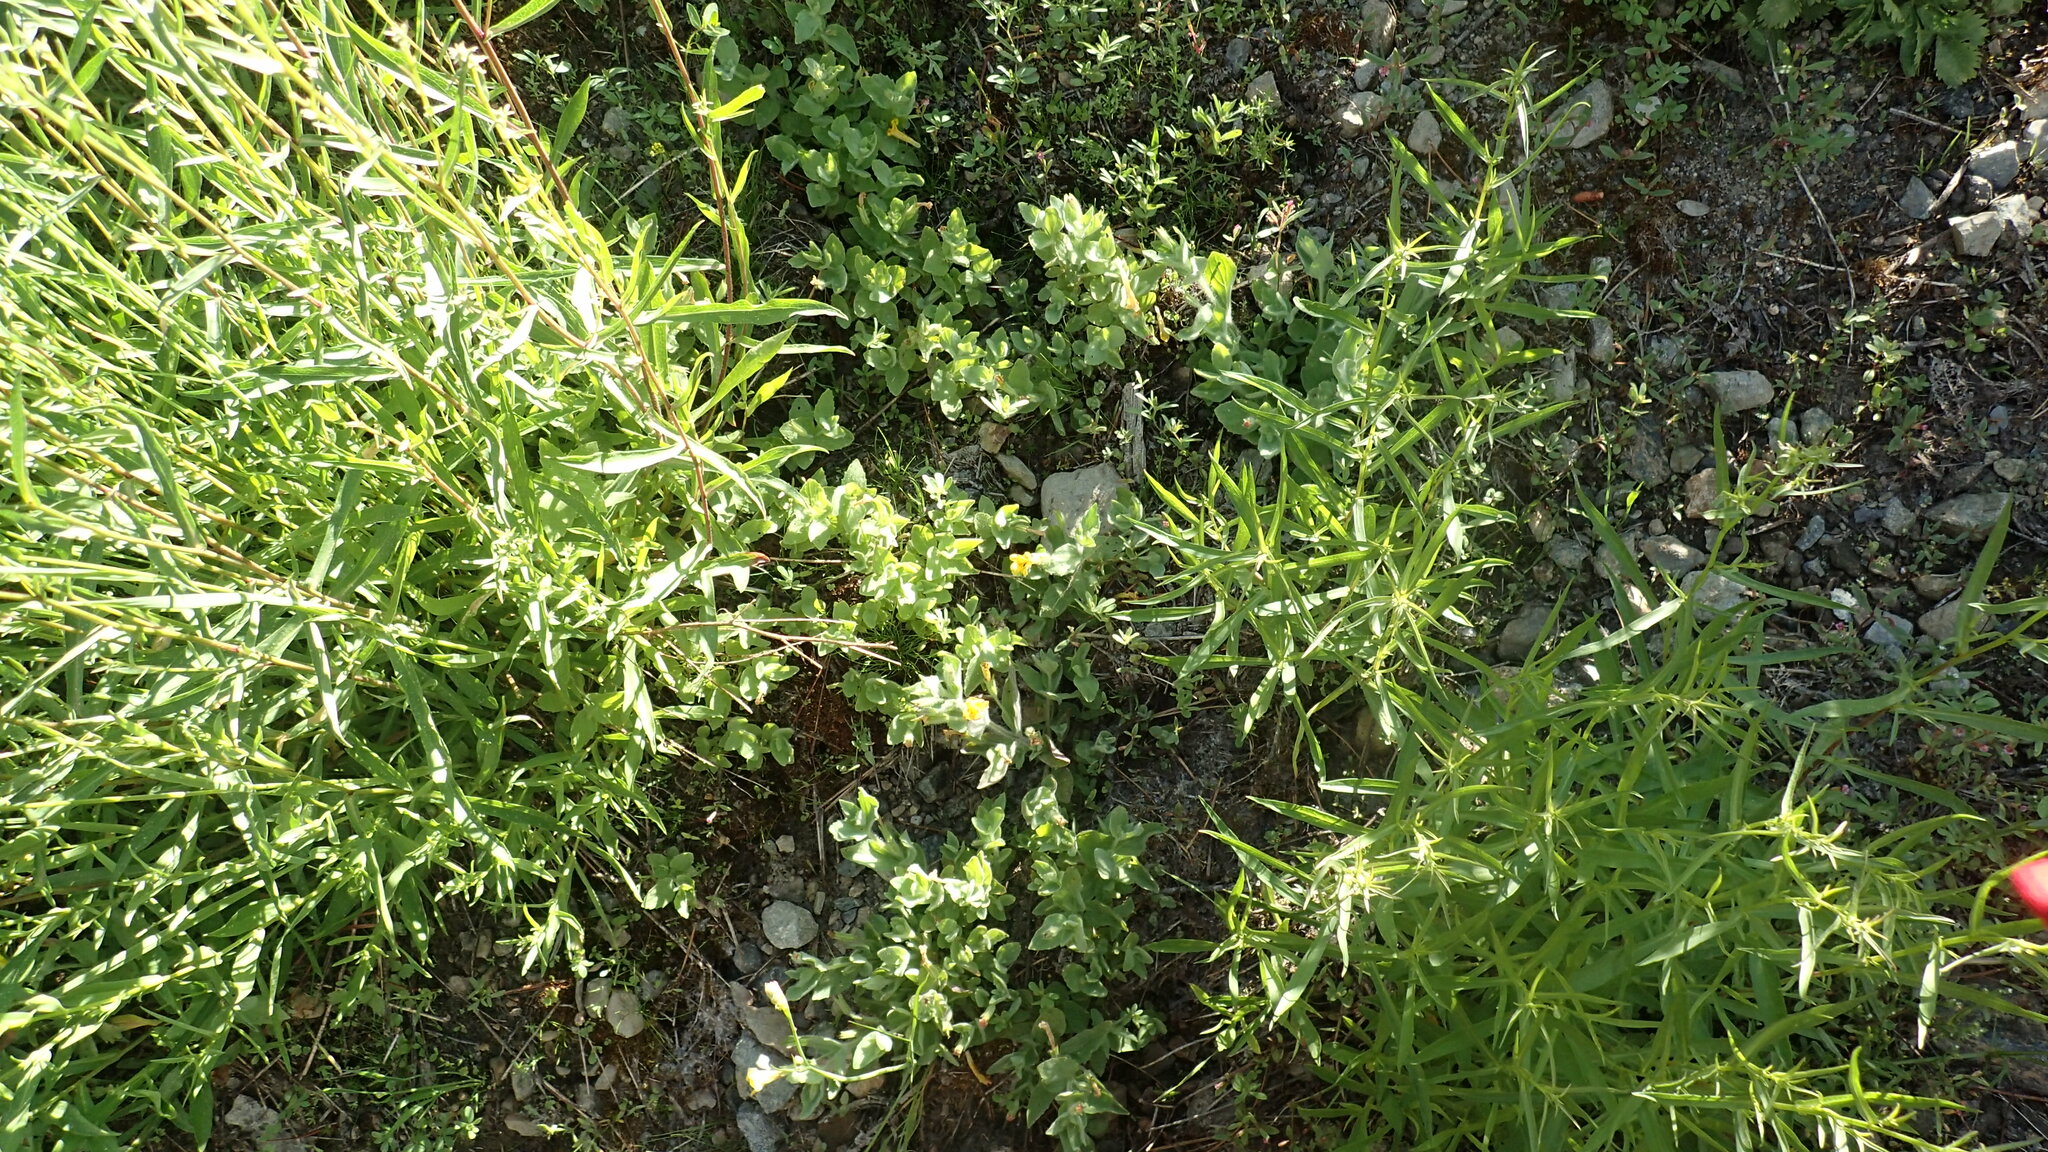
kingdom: Plantae
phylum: Tracheophyta
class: Magnoliopsida
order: Lamiales
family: Phrymaceae
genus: Erythranthe
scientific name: Erythranthe moschata
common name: Muskflower
